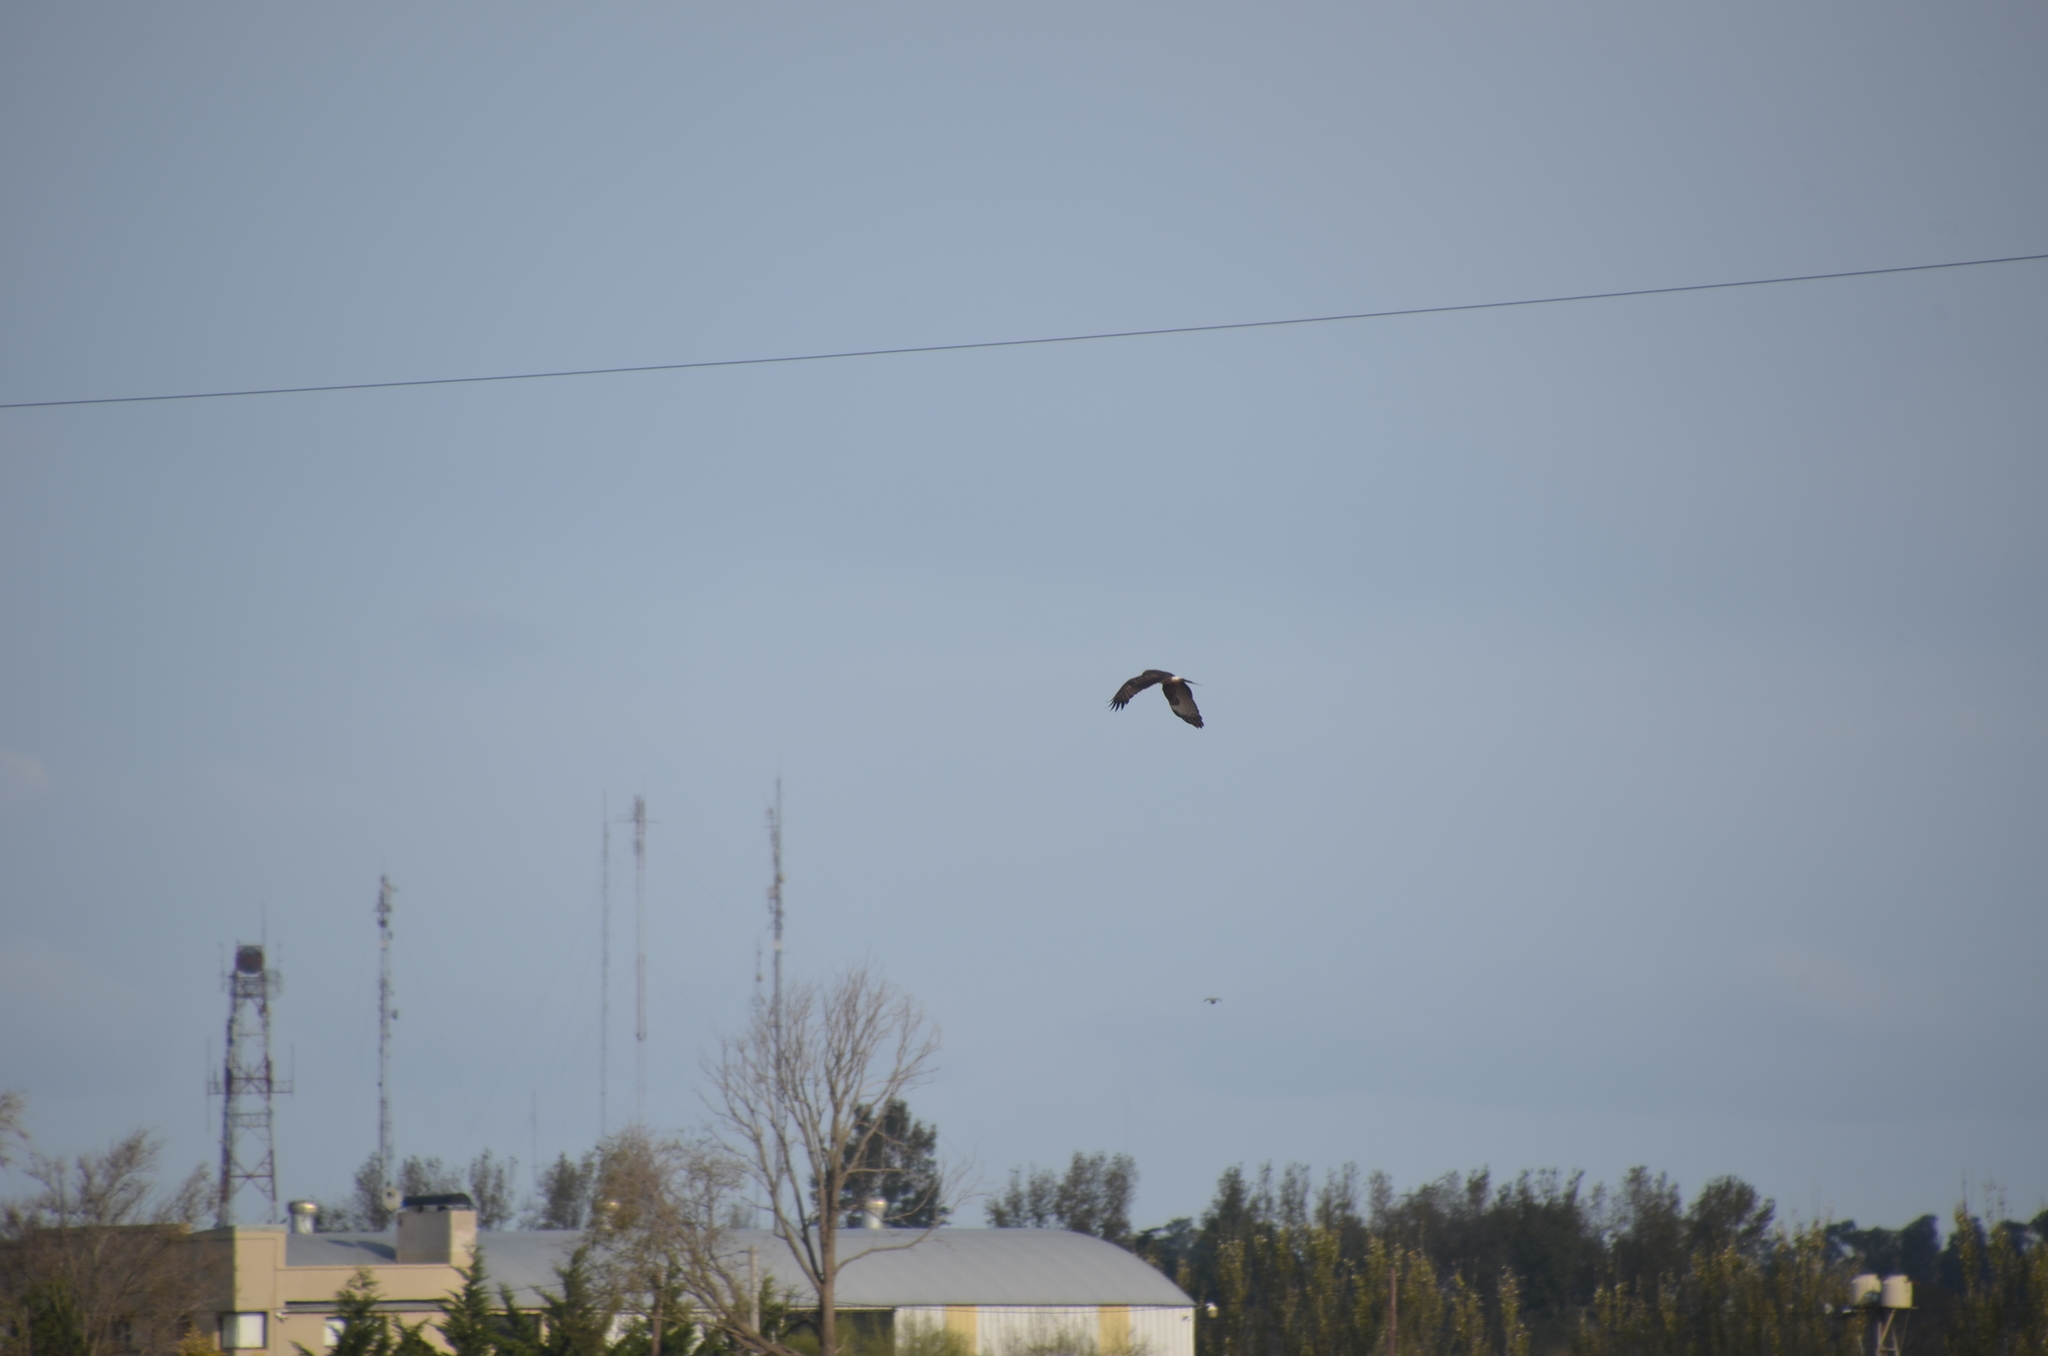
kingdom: Animalia
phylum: Chordata
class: Aves
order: Accipitriformes
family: Accipitridae
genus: Rostrhamus
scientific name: Rostrhamus sociabilis
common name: Snail kite
